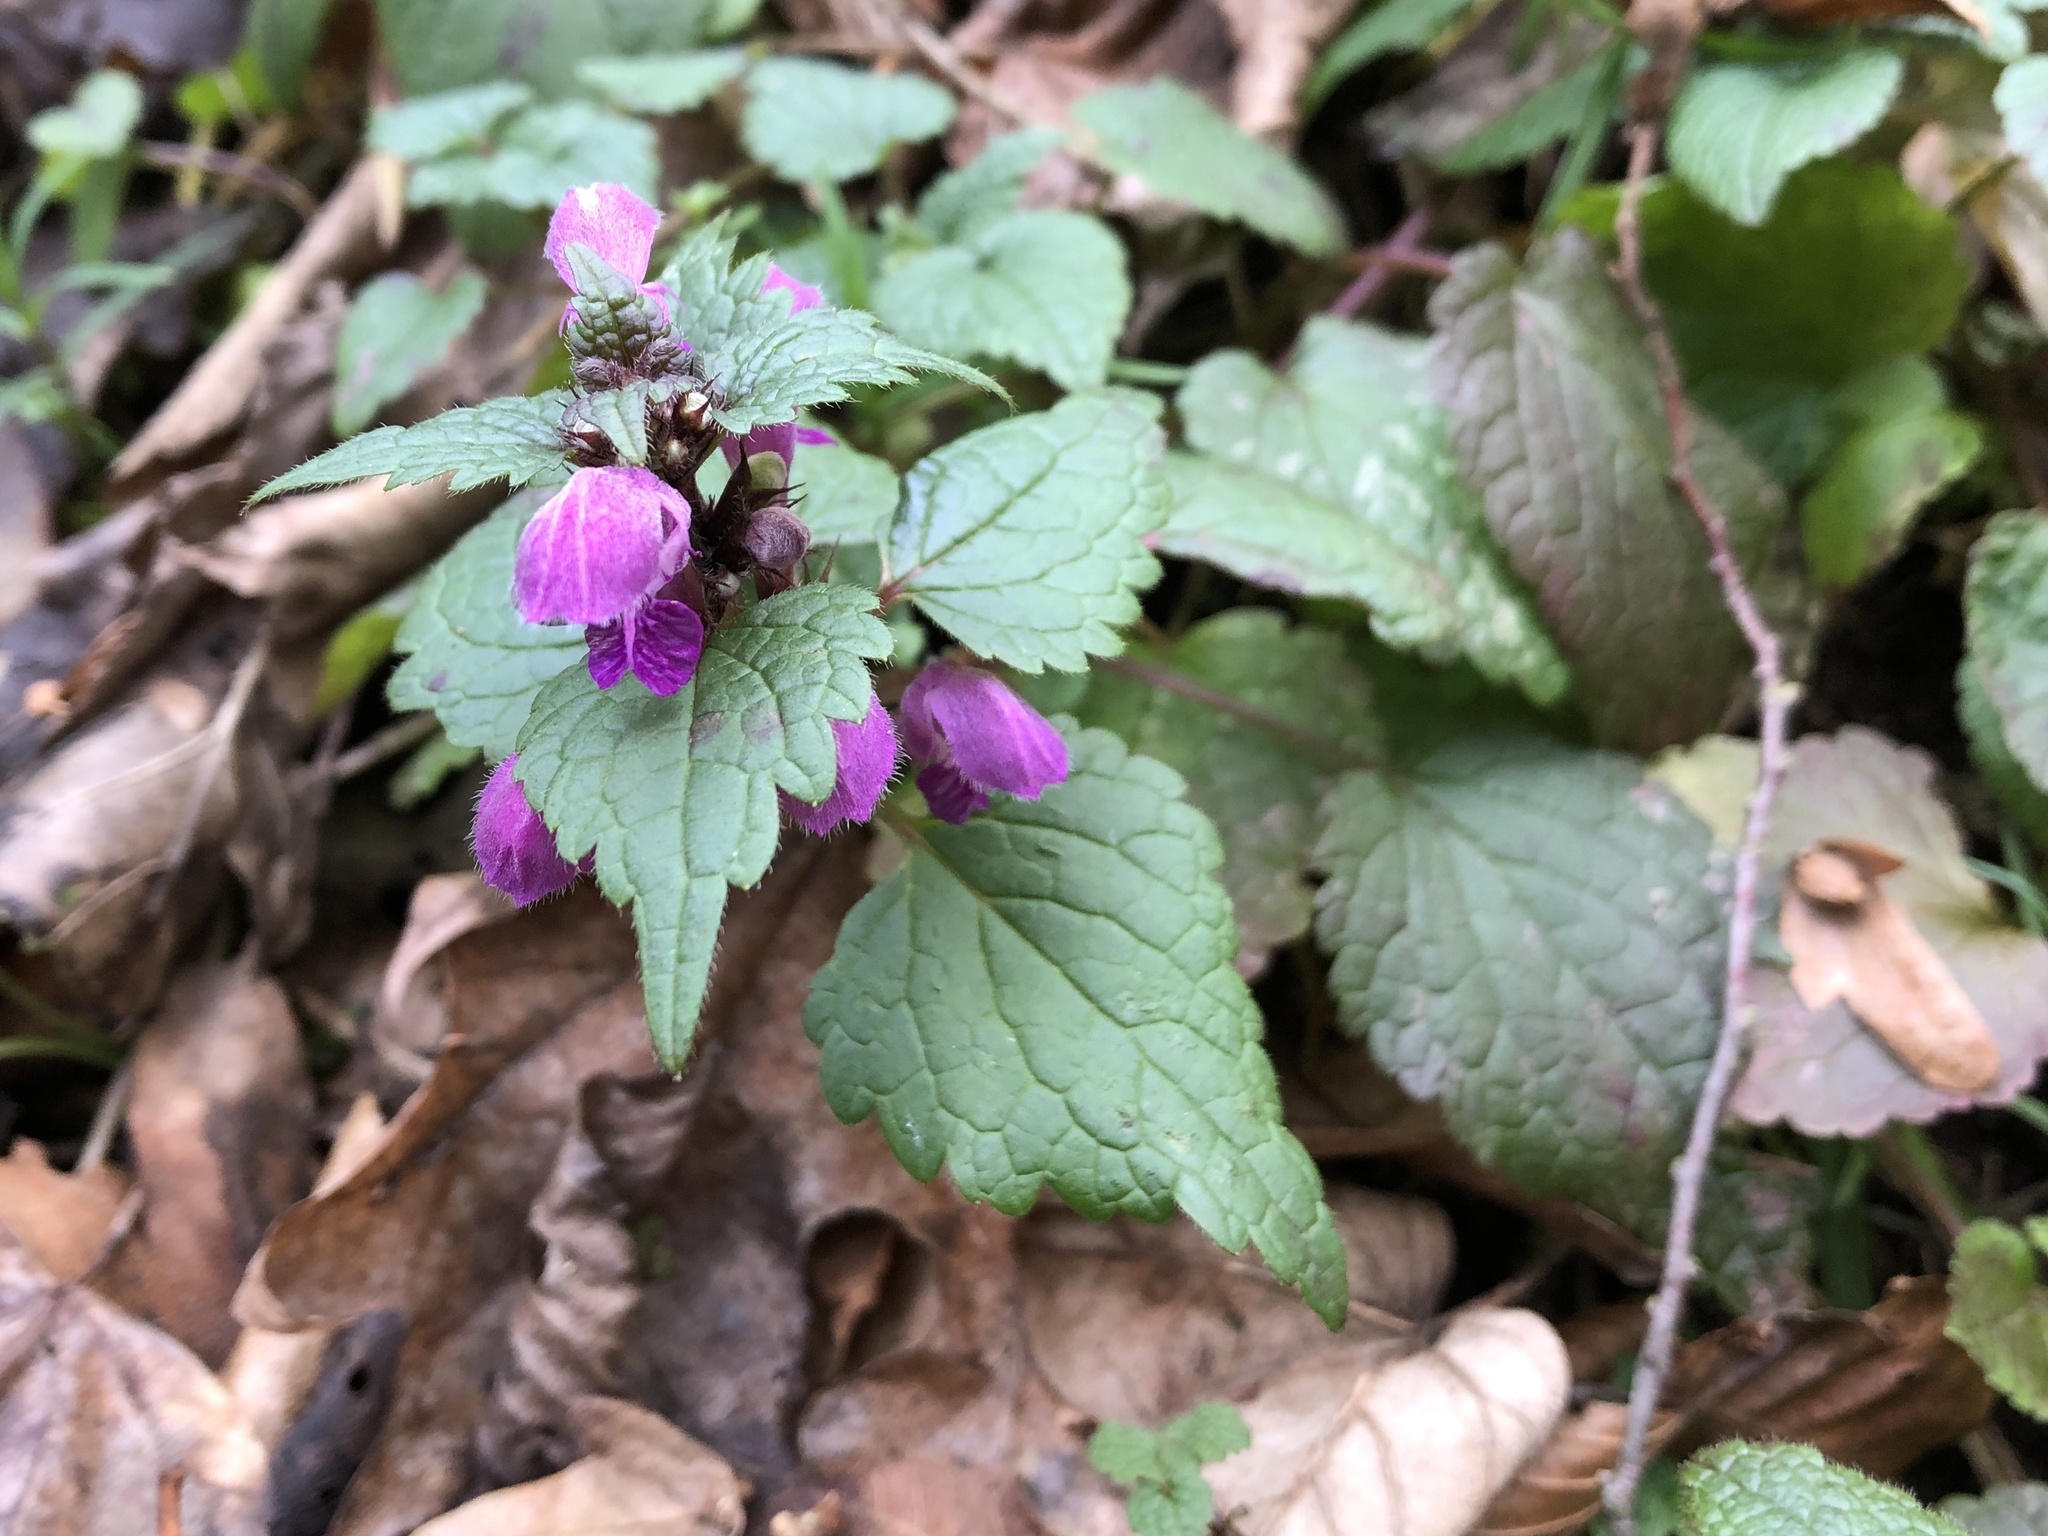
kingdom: Plantae
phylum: Tracheophyta
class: Magnoliopsida
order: Lamiales
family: Lamiaceae
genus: Lamium
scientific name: Lamium maculatum
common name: Spotted dead-nettle
